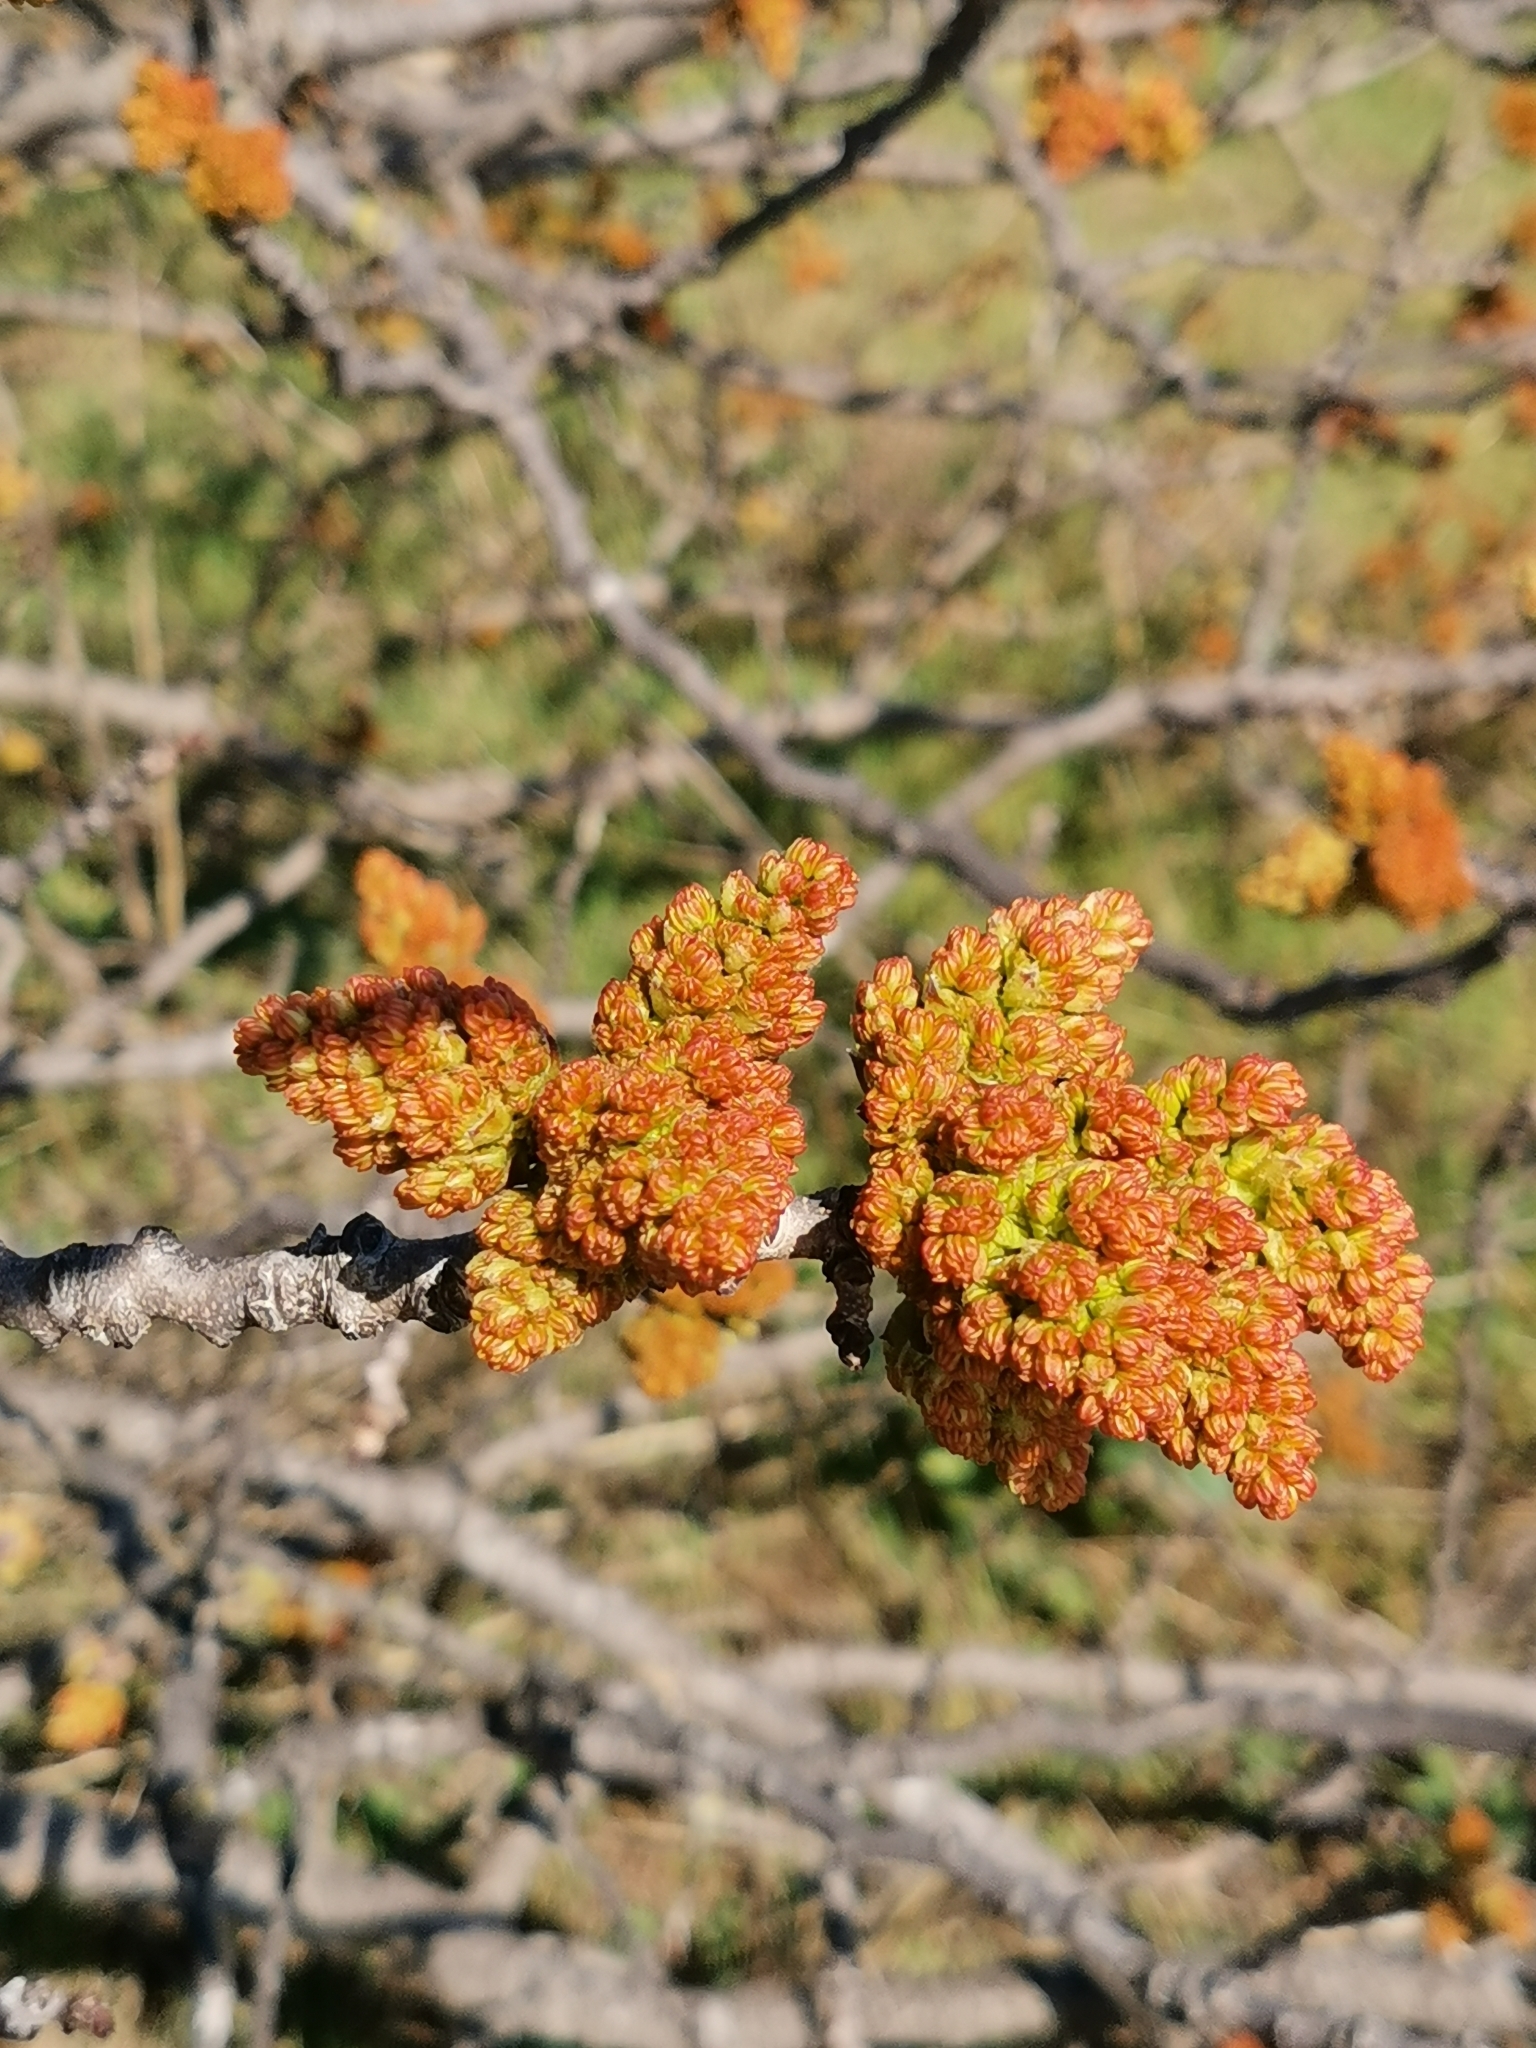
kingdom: Plantae
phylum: Tracheophyta
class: Magnoliopsida
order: Sapindales
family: Anacardiaceae
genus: Pistacia
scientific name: Pistacia atlantica
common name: Mt. atlas mastic tree
